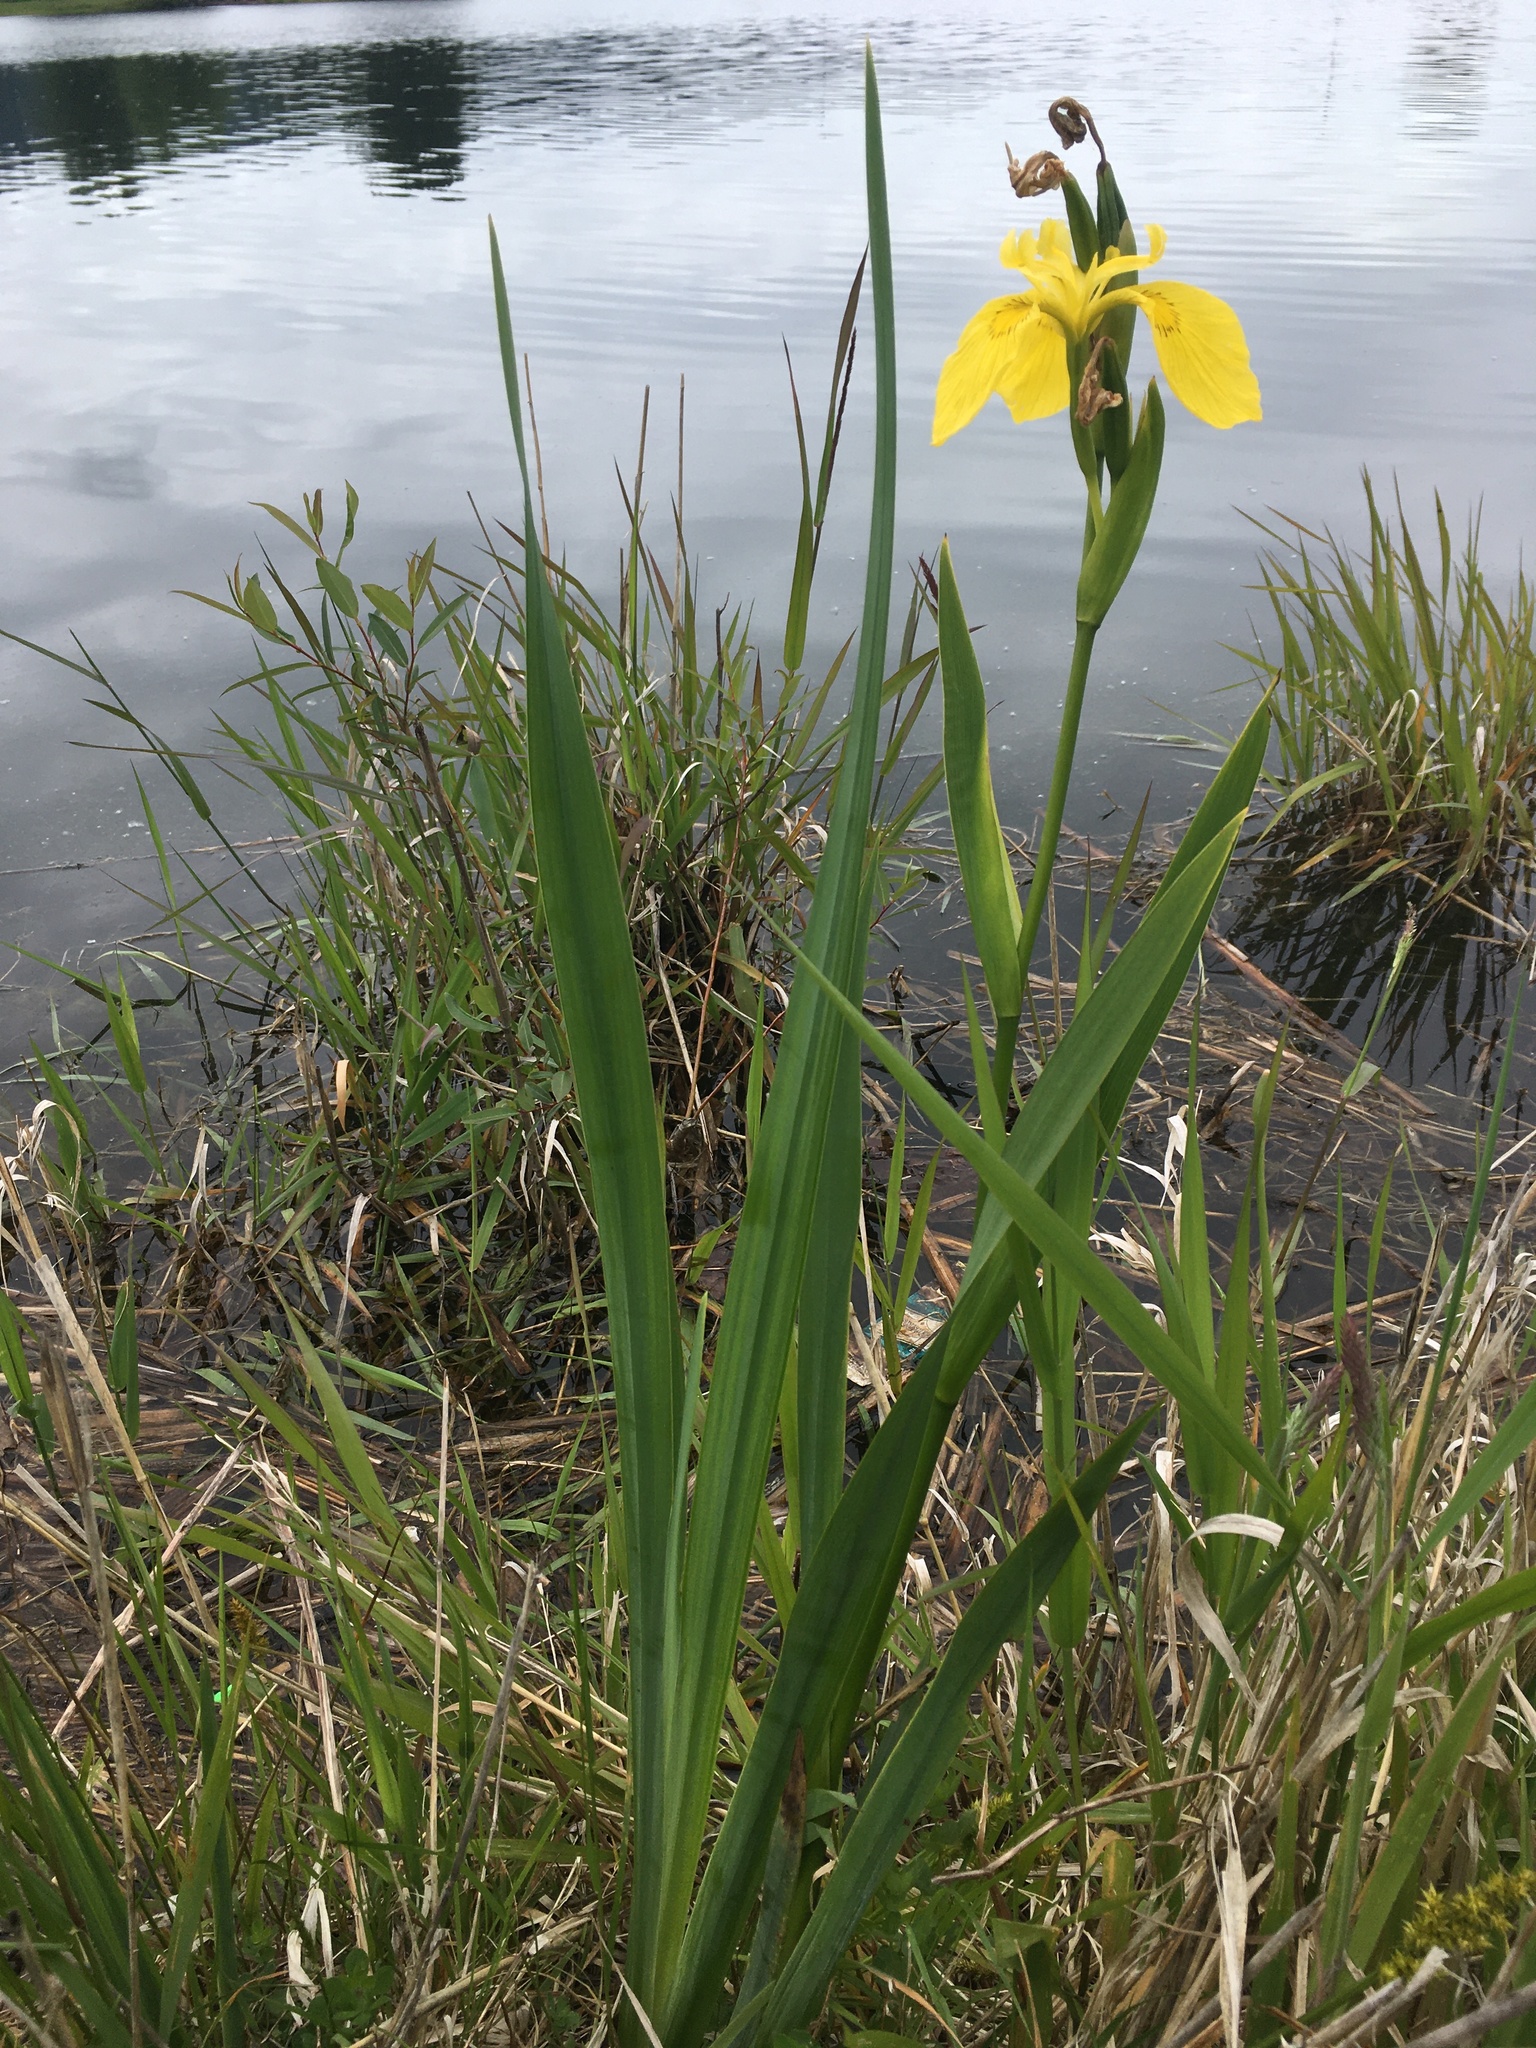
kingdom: Plantae
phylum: Tracheophyta
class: Liliopsida
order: Asparagales
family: Iridaceae
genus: Iris
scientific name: Iris pseudacorus
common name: Yellow flag
